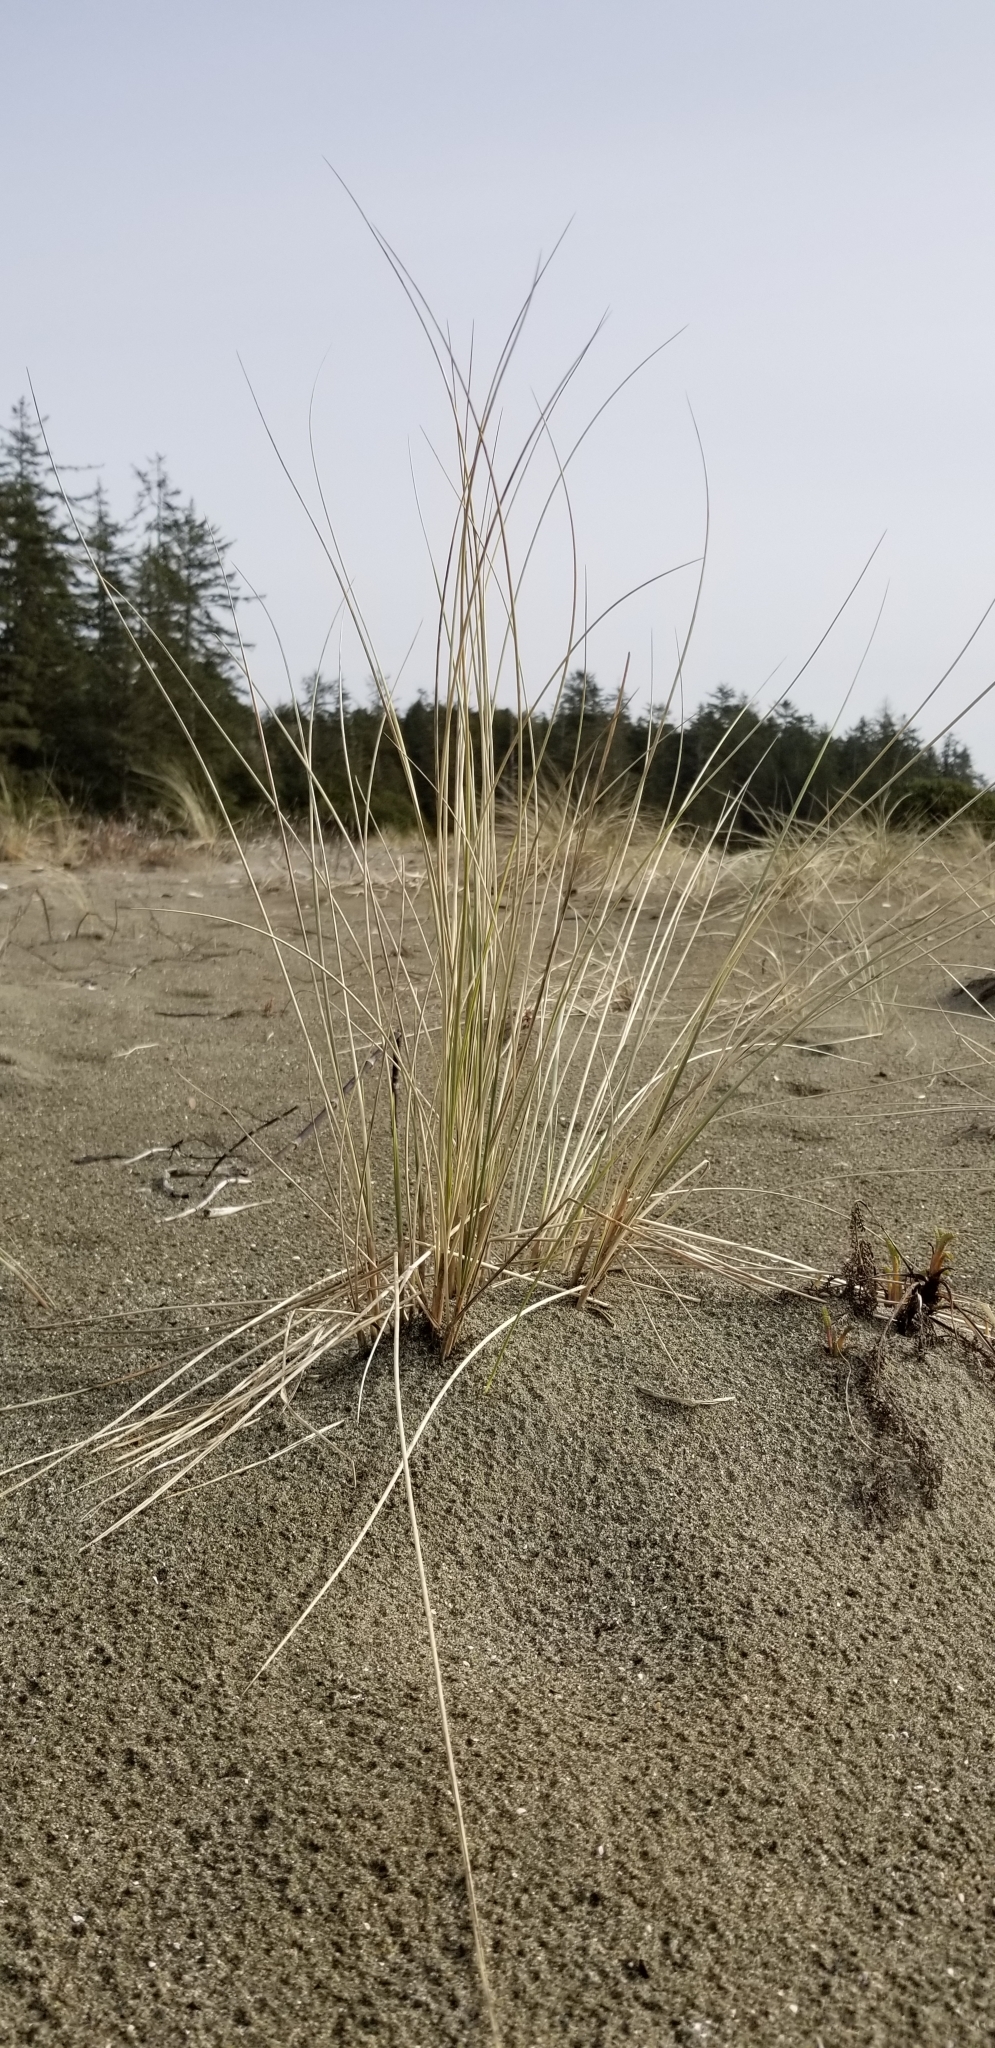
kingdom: Plantae
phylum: Tracheophyta
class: Liliopsida
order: Poales
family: Poaceae
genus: Calamagrostis
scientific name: Calamagrostis arenaria
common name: European beachgrass
